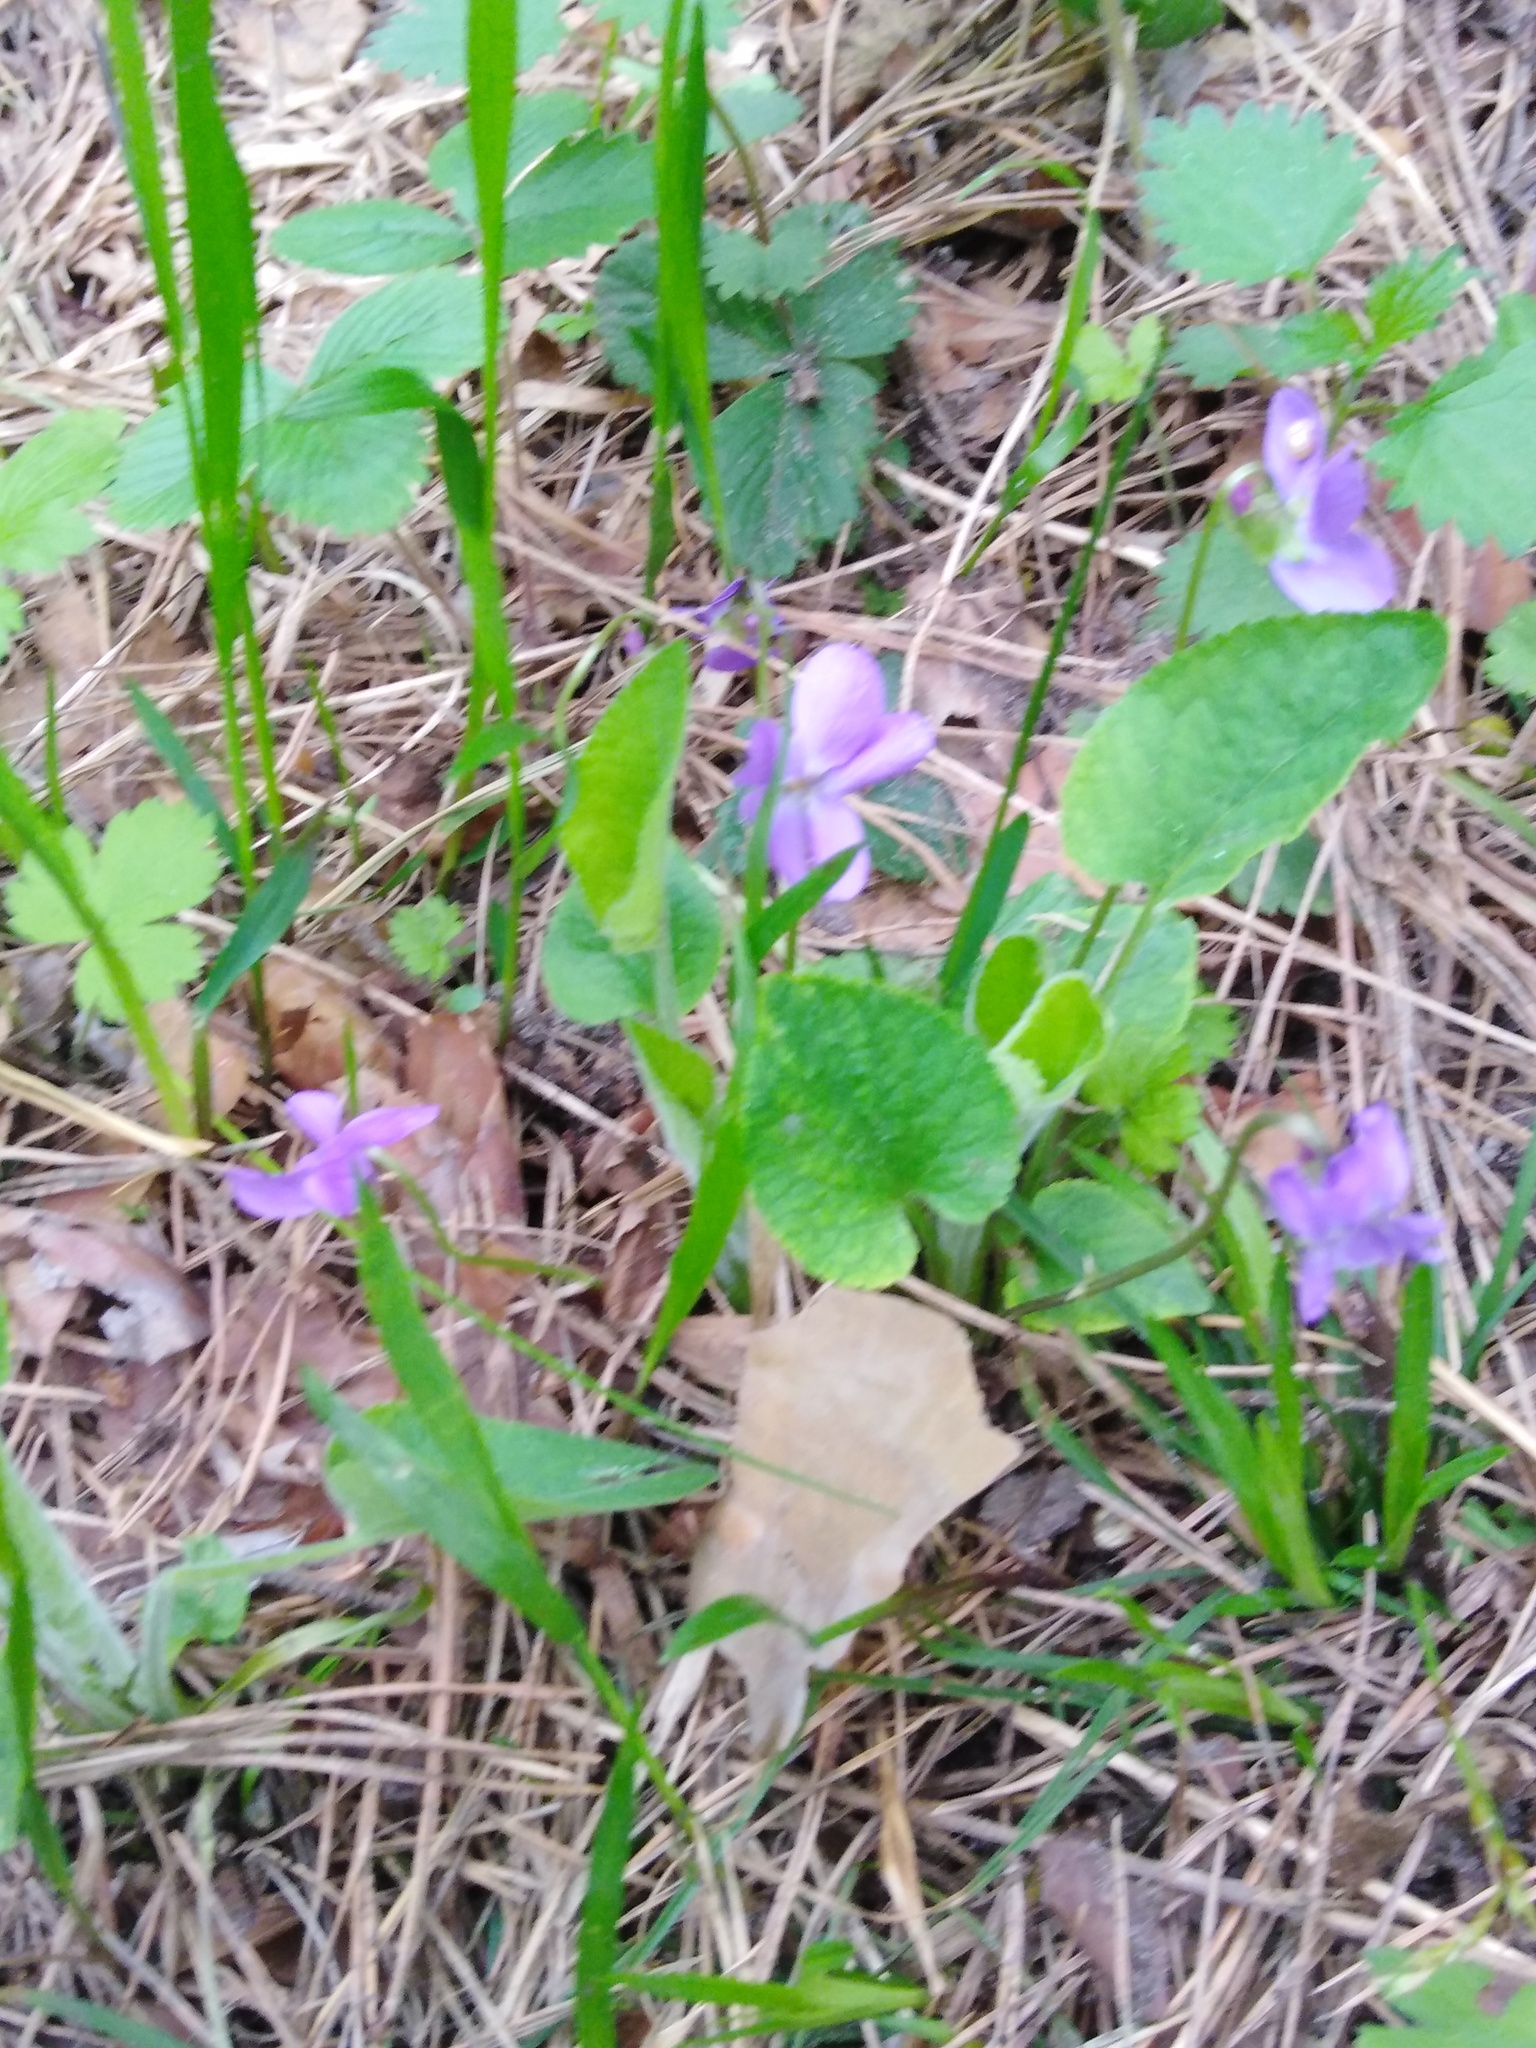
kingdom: Plantae
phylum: Tracheophyta
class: Magnoliopsida
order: Malpighiales
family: Violaceae
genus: Viola
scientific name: Viola hirta
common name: Hairy violet
